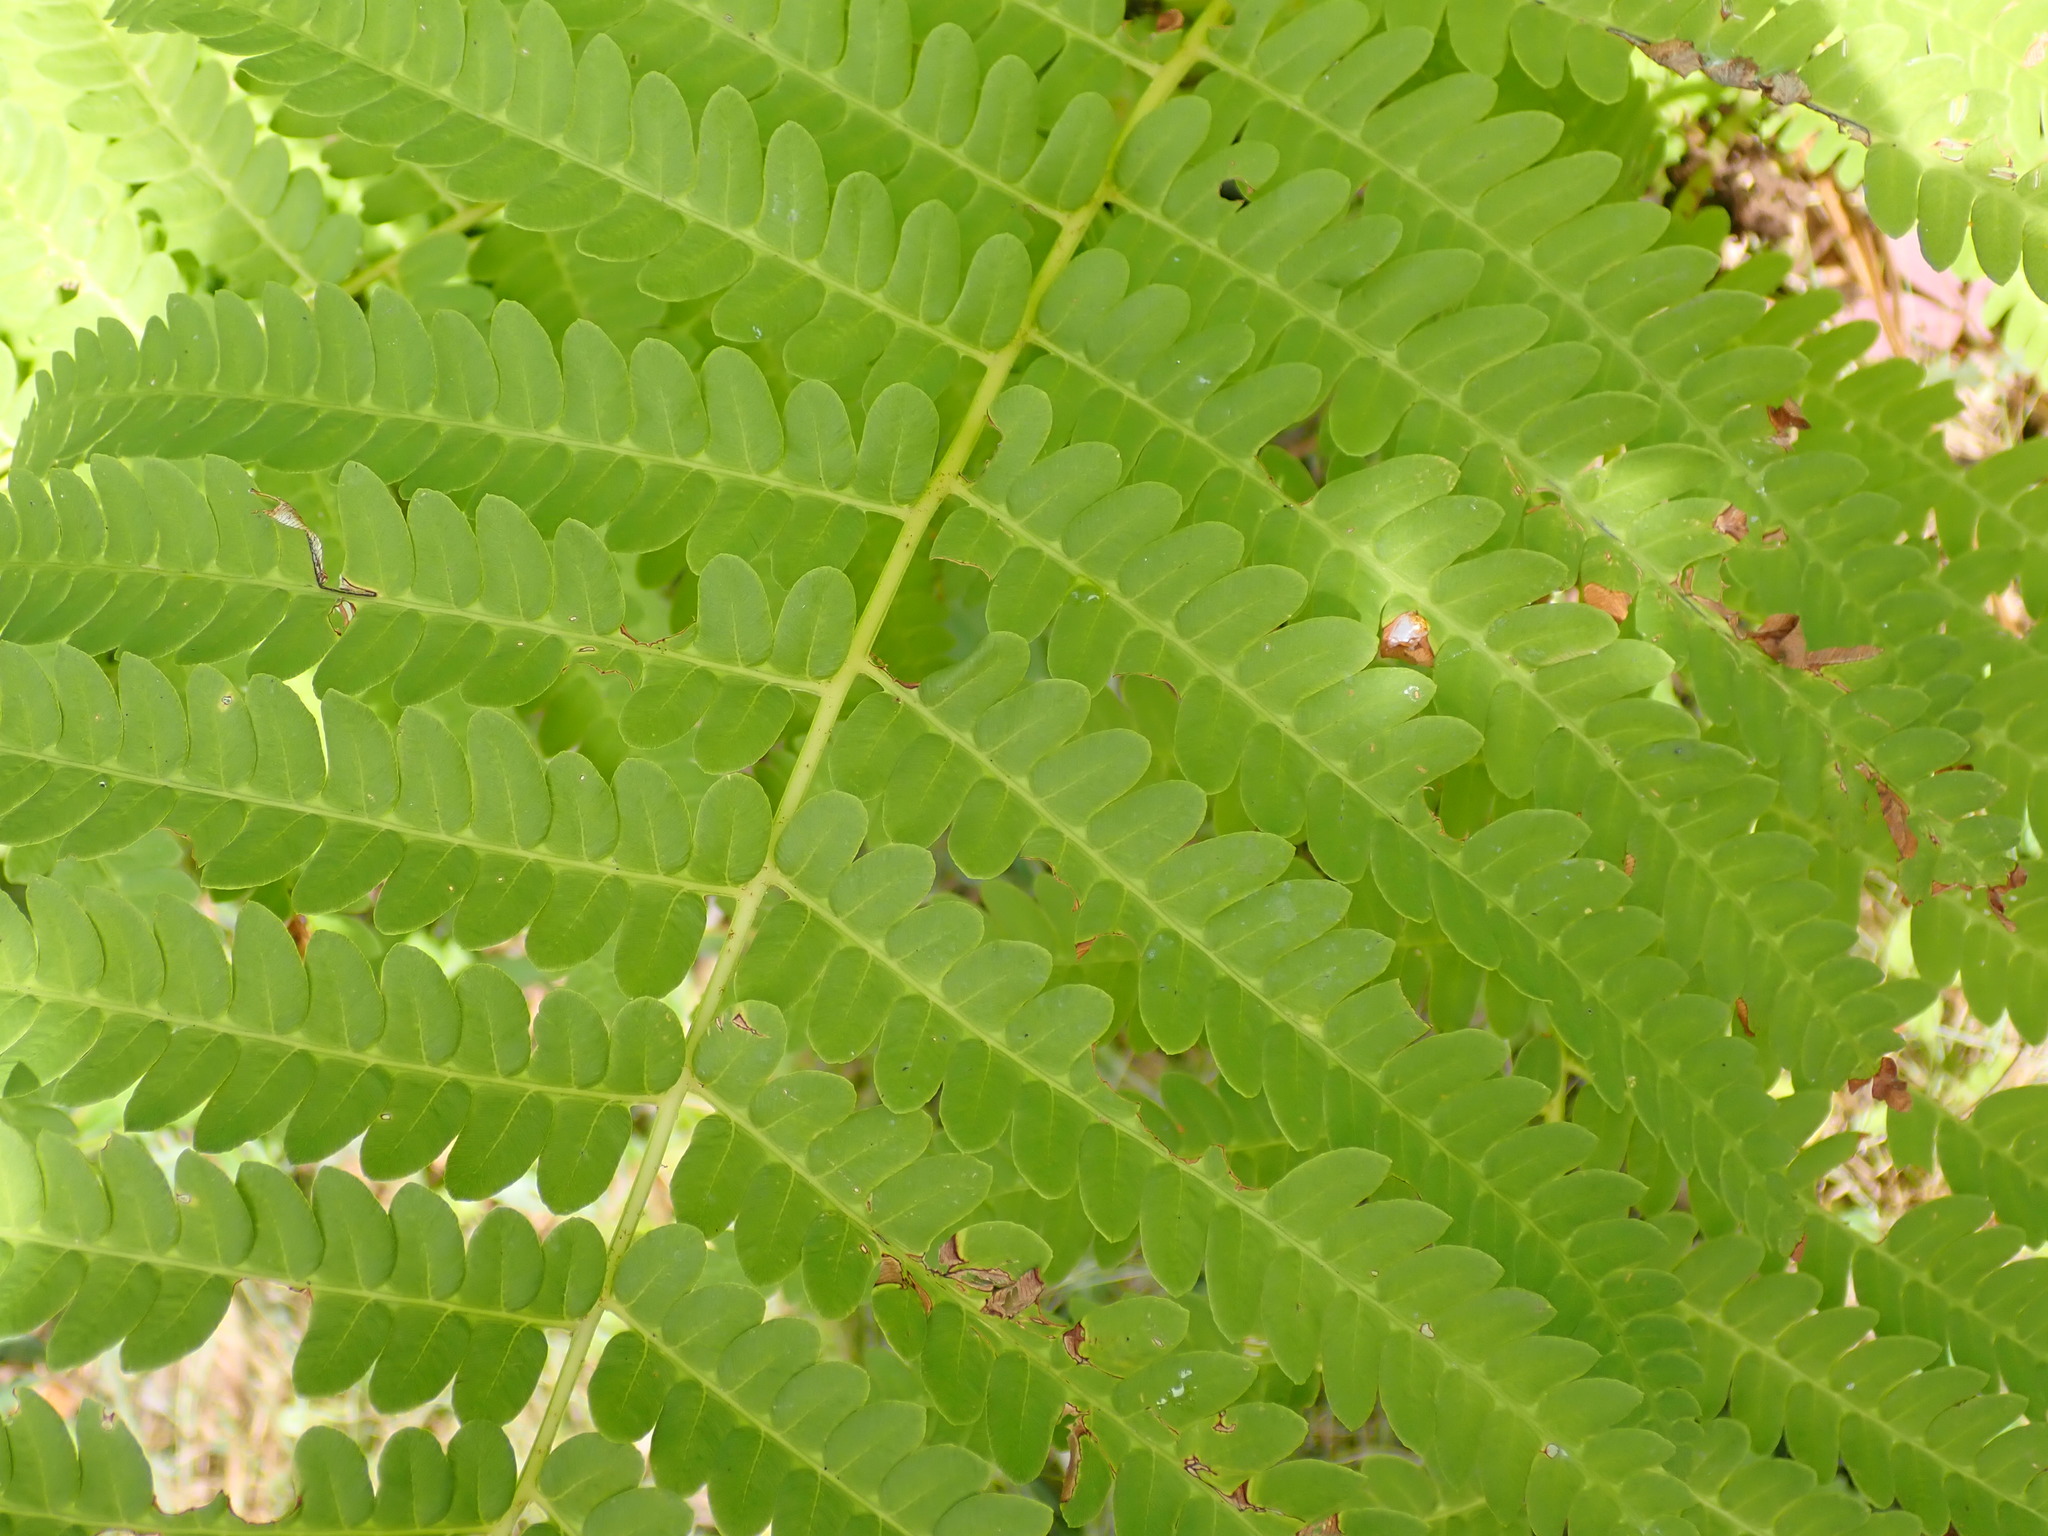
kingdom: Plantae
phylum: Tracheophyta
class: Polypodiopsida
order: Osmundales
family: Osmundaceae
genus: Claytosmunda
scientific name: Claytosmunda claytoniana
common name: Clayton's fern
